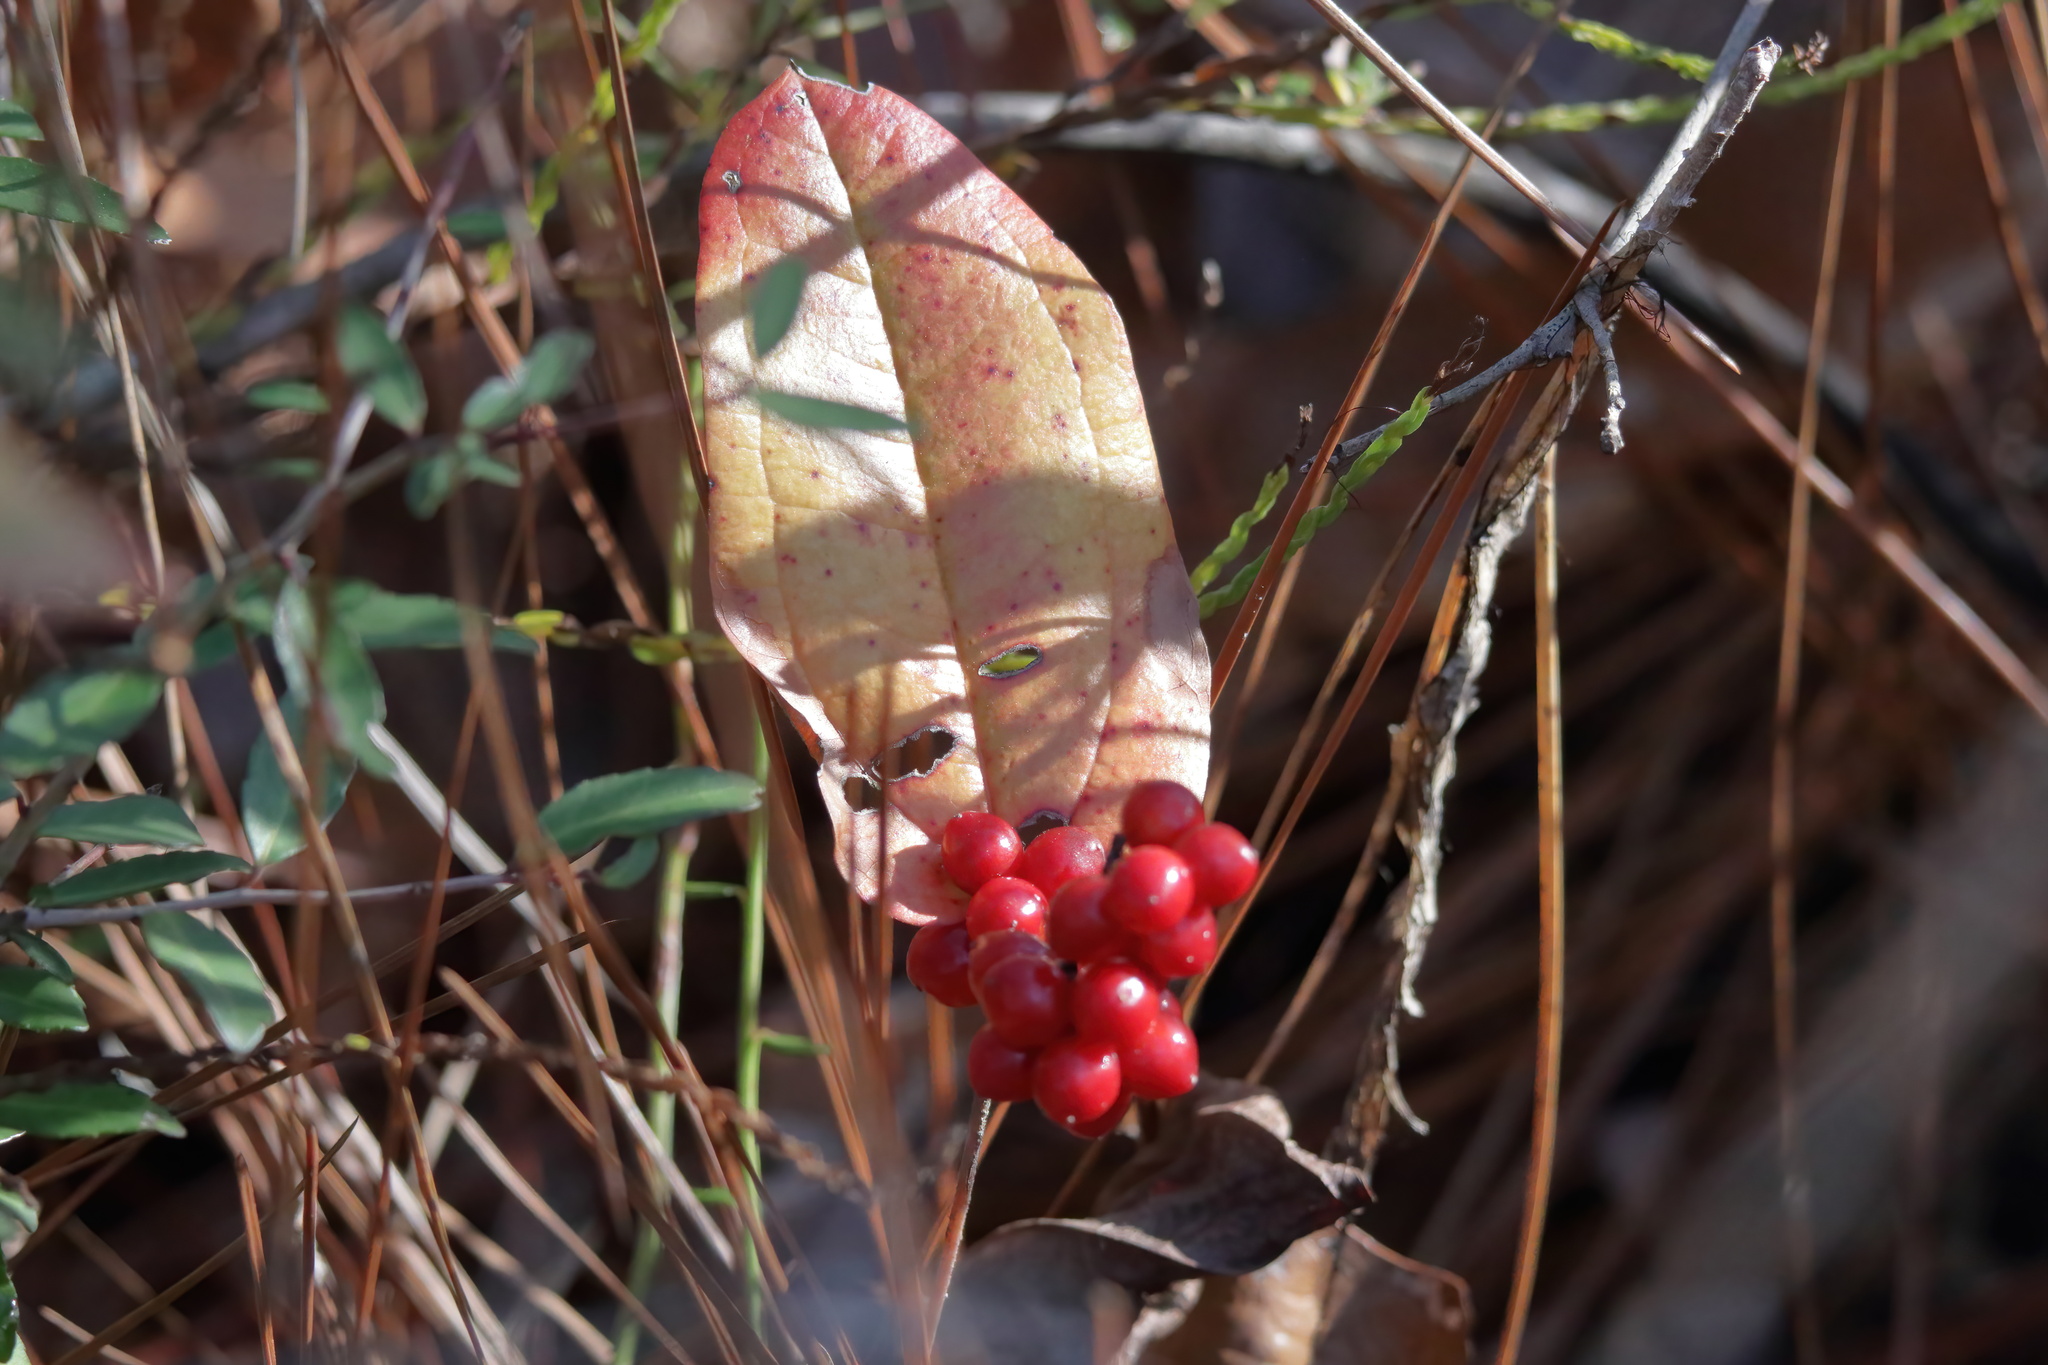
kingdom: Plantae
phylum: Tracheophyta
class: Liliopsida
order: Liliales
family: Smilacaceae
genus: Smilax
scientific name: Smilax pumila
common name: Sarsaparilla-vine
